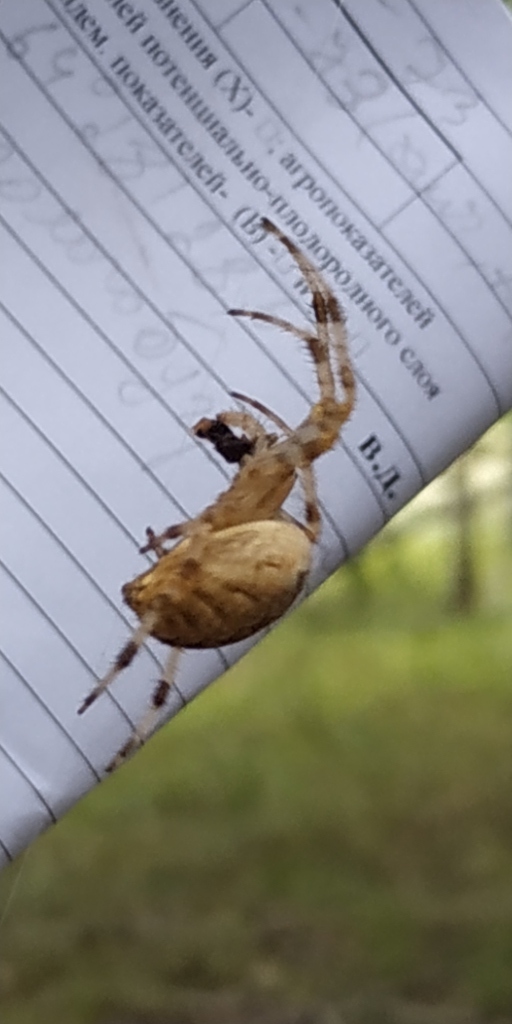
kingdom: Animalia
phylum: Arthropoda
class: Arachnida
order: Araneae
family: Araneidae
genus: Araneus
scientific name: Araneus diadematus
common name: Cross orbweaver
